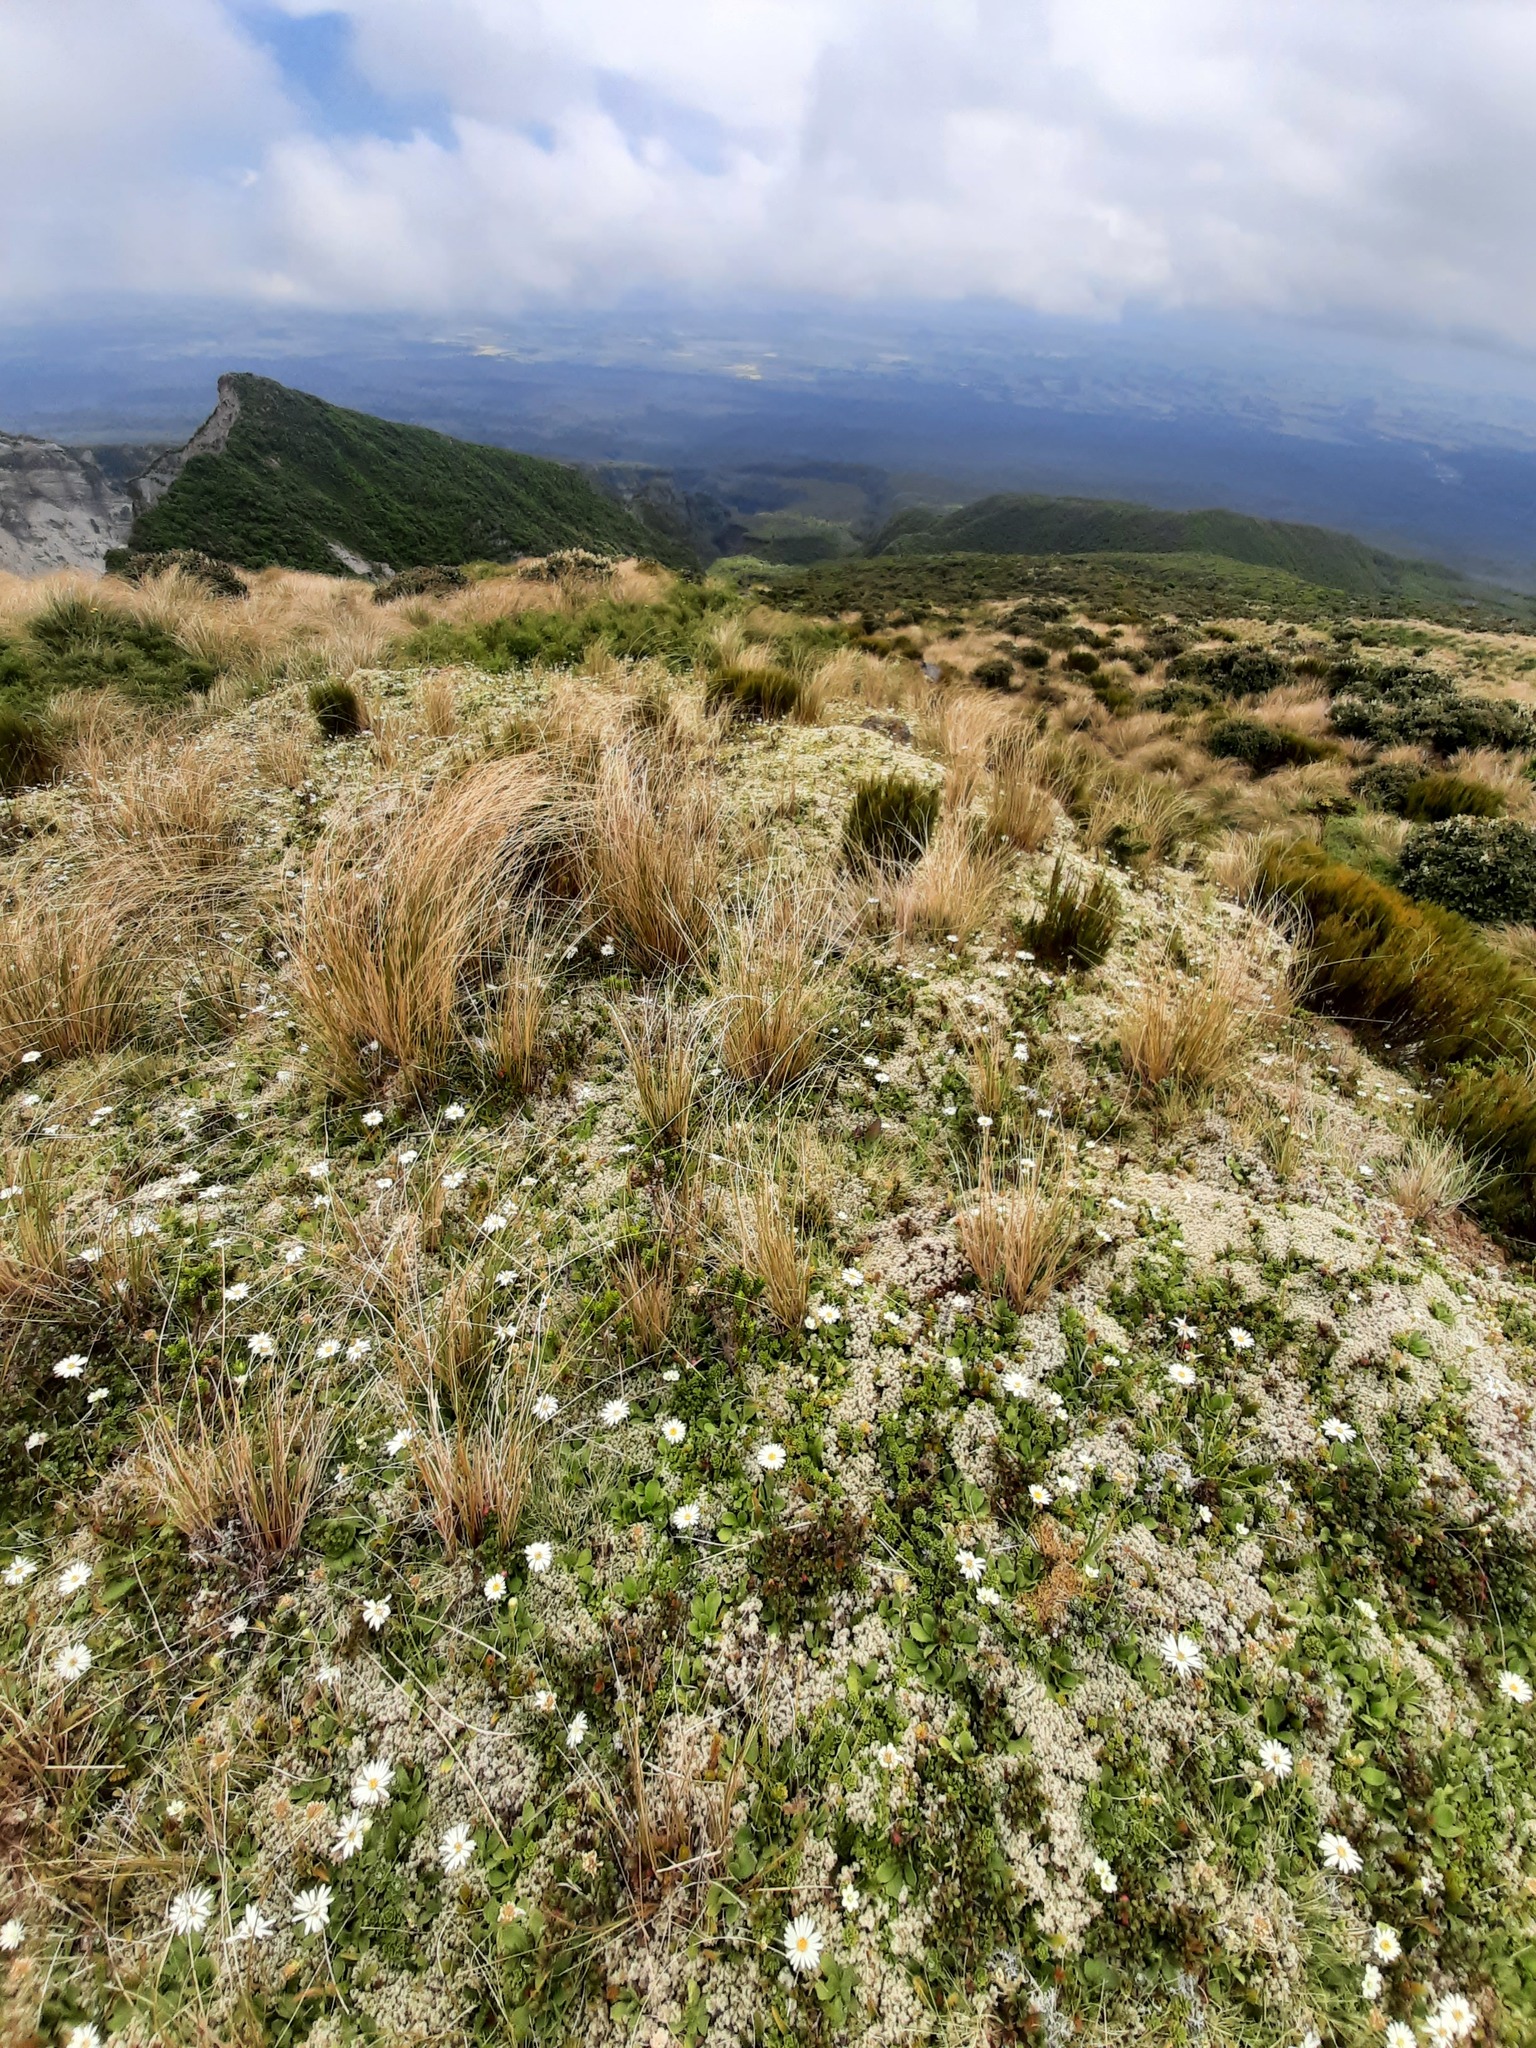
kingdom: Plantae
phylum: Tracheophyta
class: Magnoliopsida
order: Asterales
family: Asteraceae
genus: Celmisia
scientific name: Celmisia glandulosa
